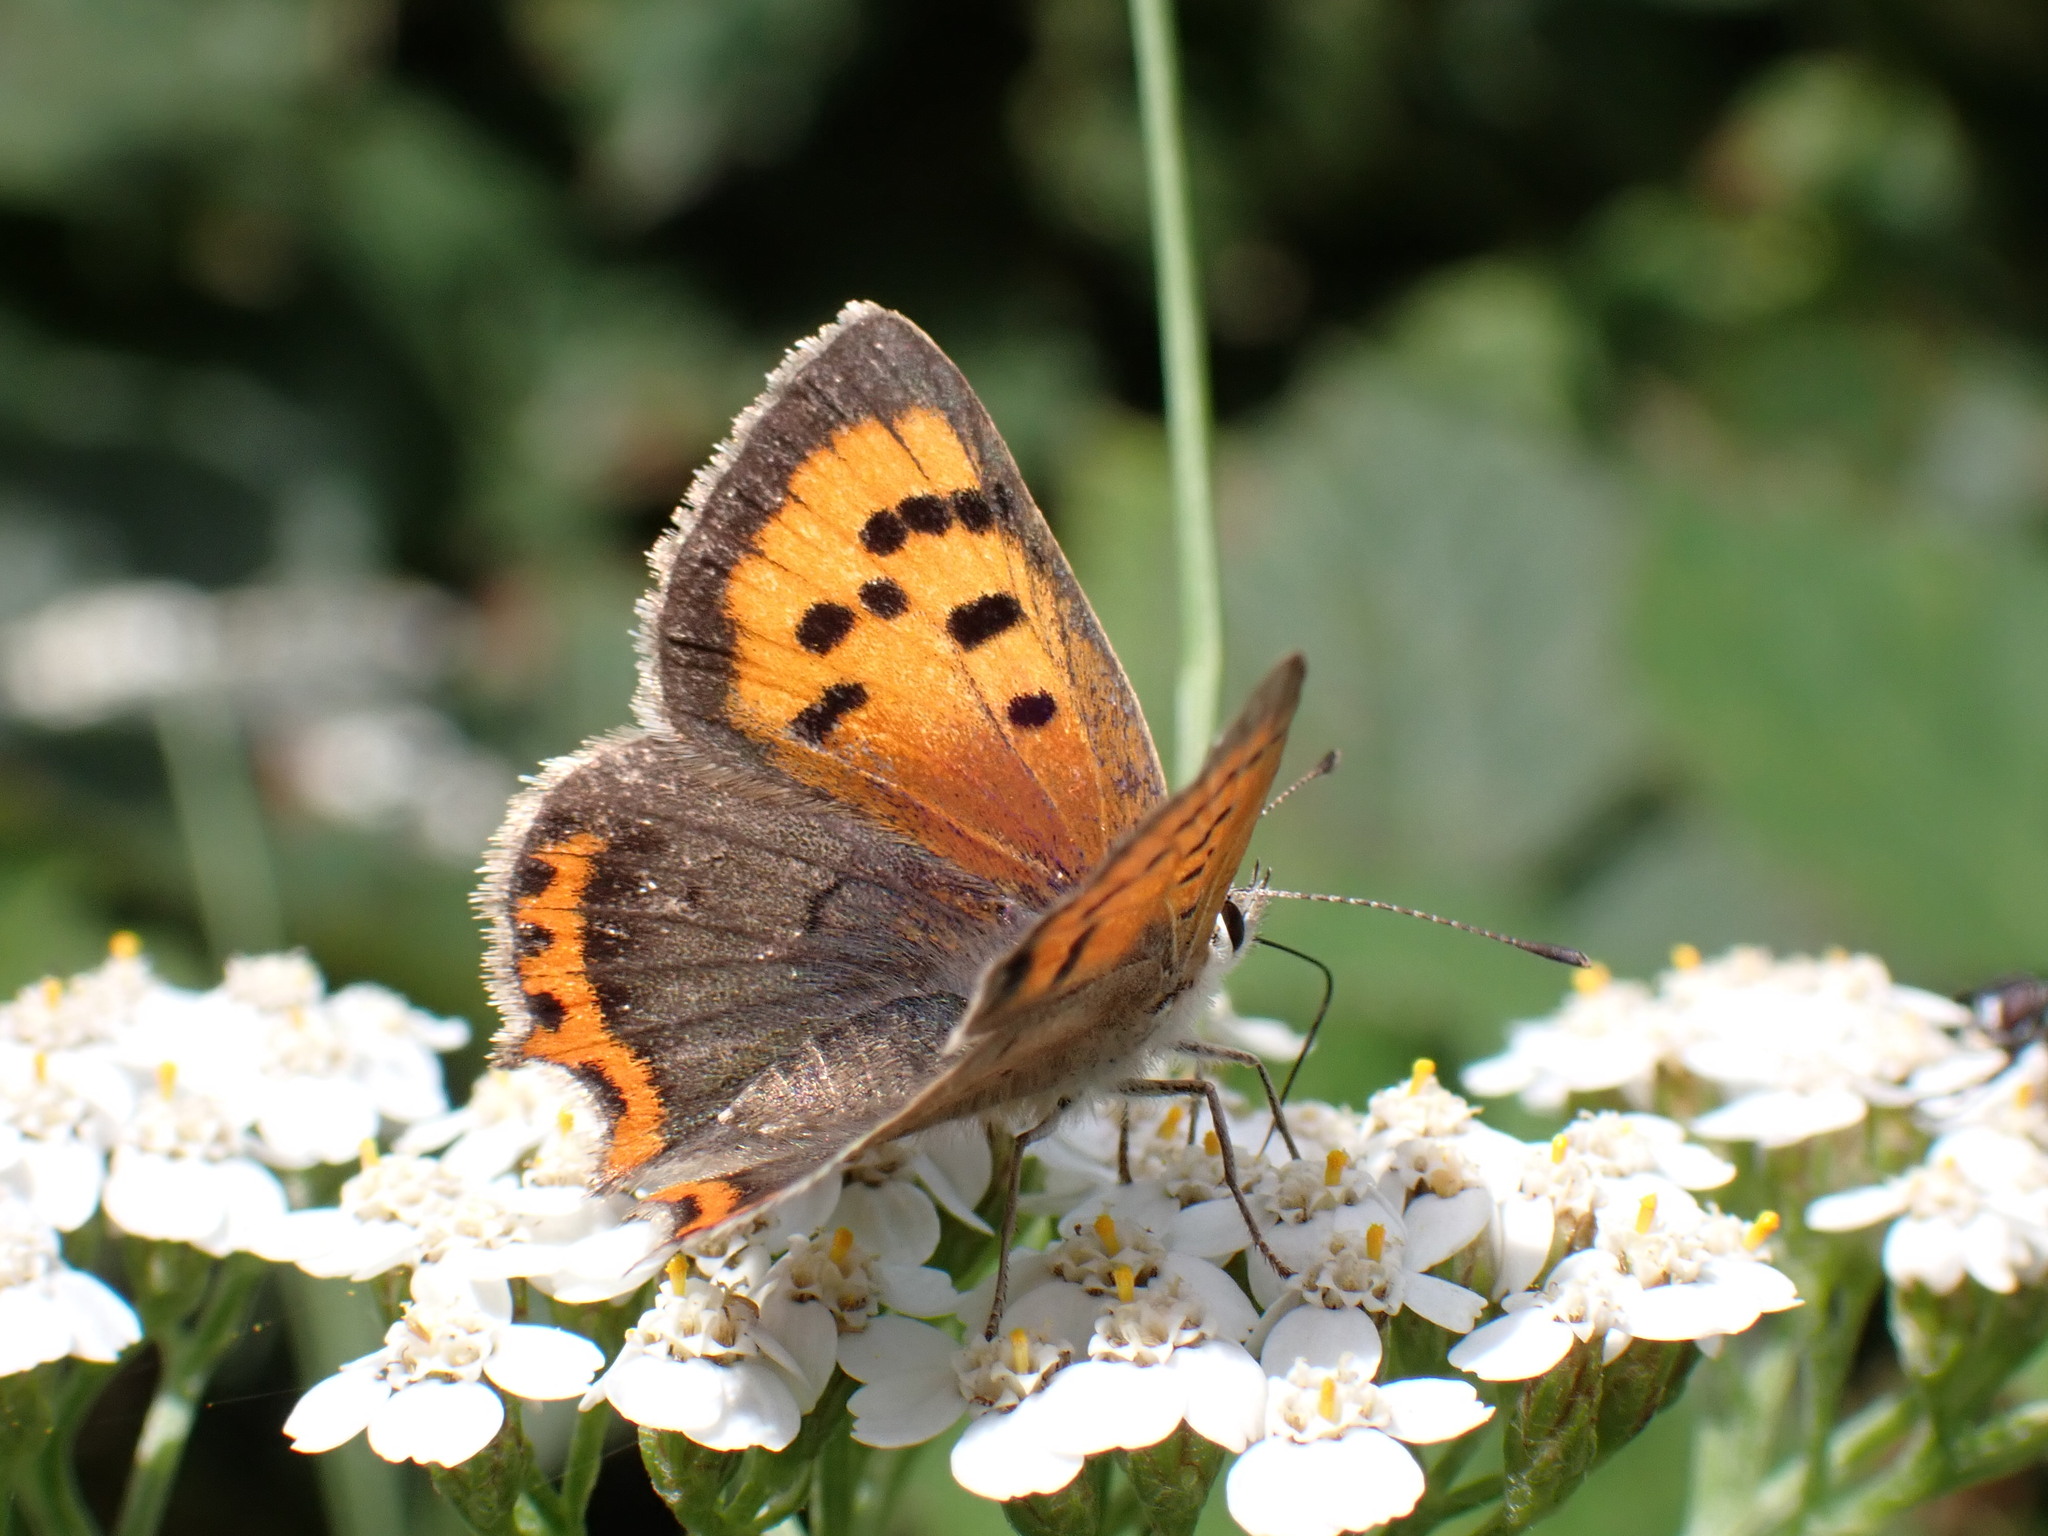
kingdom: Animalia
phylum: Arthropoda
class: Insecta
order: Lepidoptera
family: Lycaenidae
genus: Lycaena
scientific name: Lycaena phlaeas
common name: Small copper
